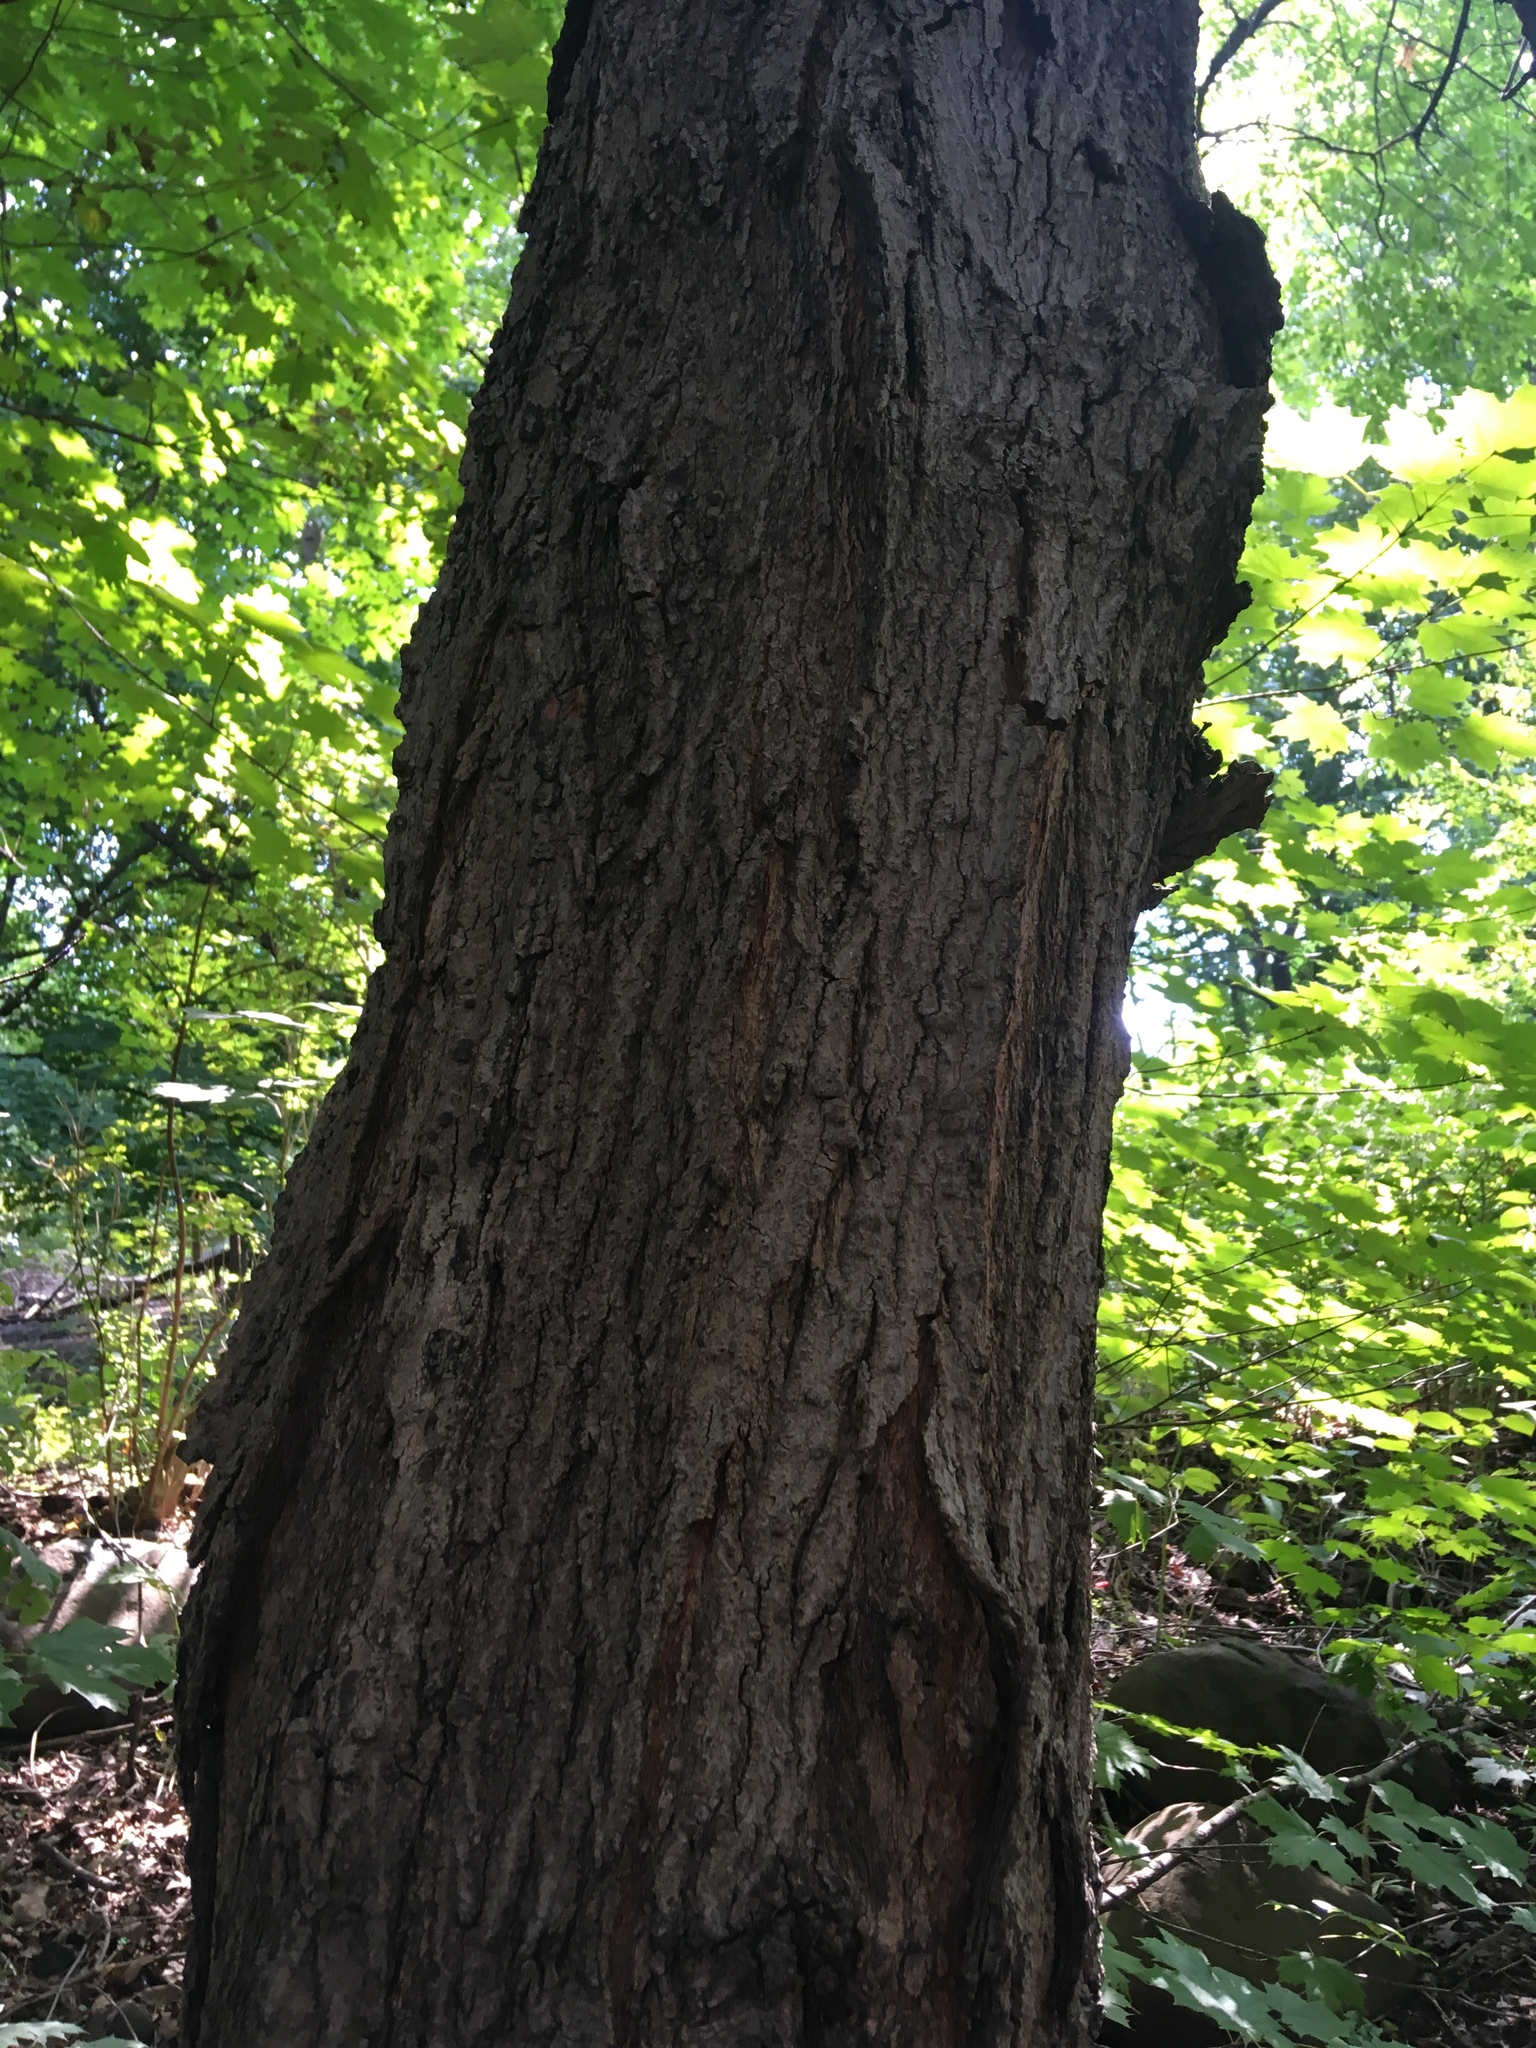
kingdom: Plantae
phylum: Tracheophyta
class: Magnoliopsida
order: Sapindales
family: Sapindaceae
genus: Acer
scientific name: Acer saccharum
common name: Sugar maple
